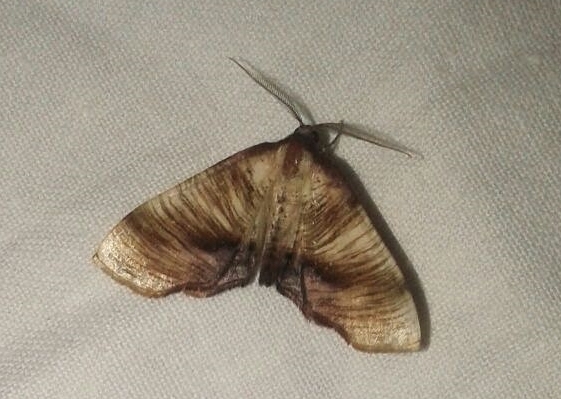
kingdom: Animalia
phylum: Arthropoda
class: Insecta
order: Lepidoptera
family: Geometridae
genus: Plagodis
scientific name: Plagodis dolabraria
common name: Scorched wing
